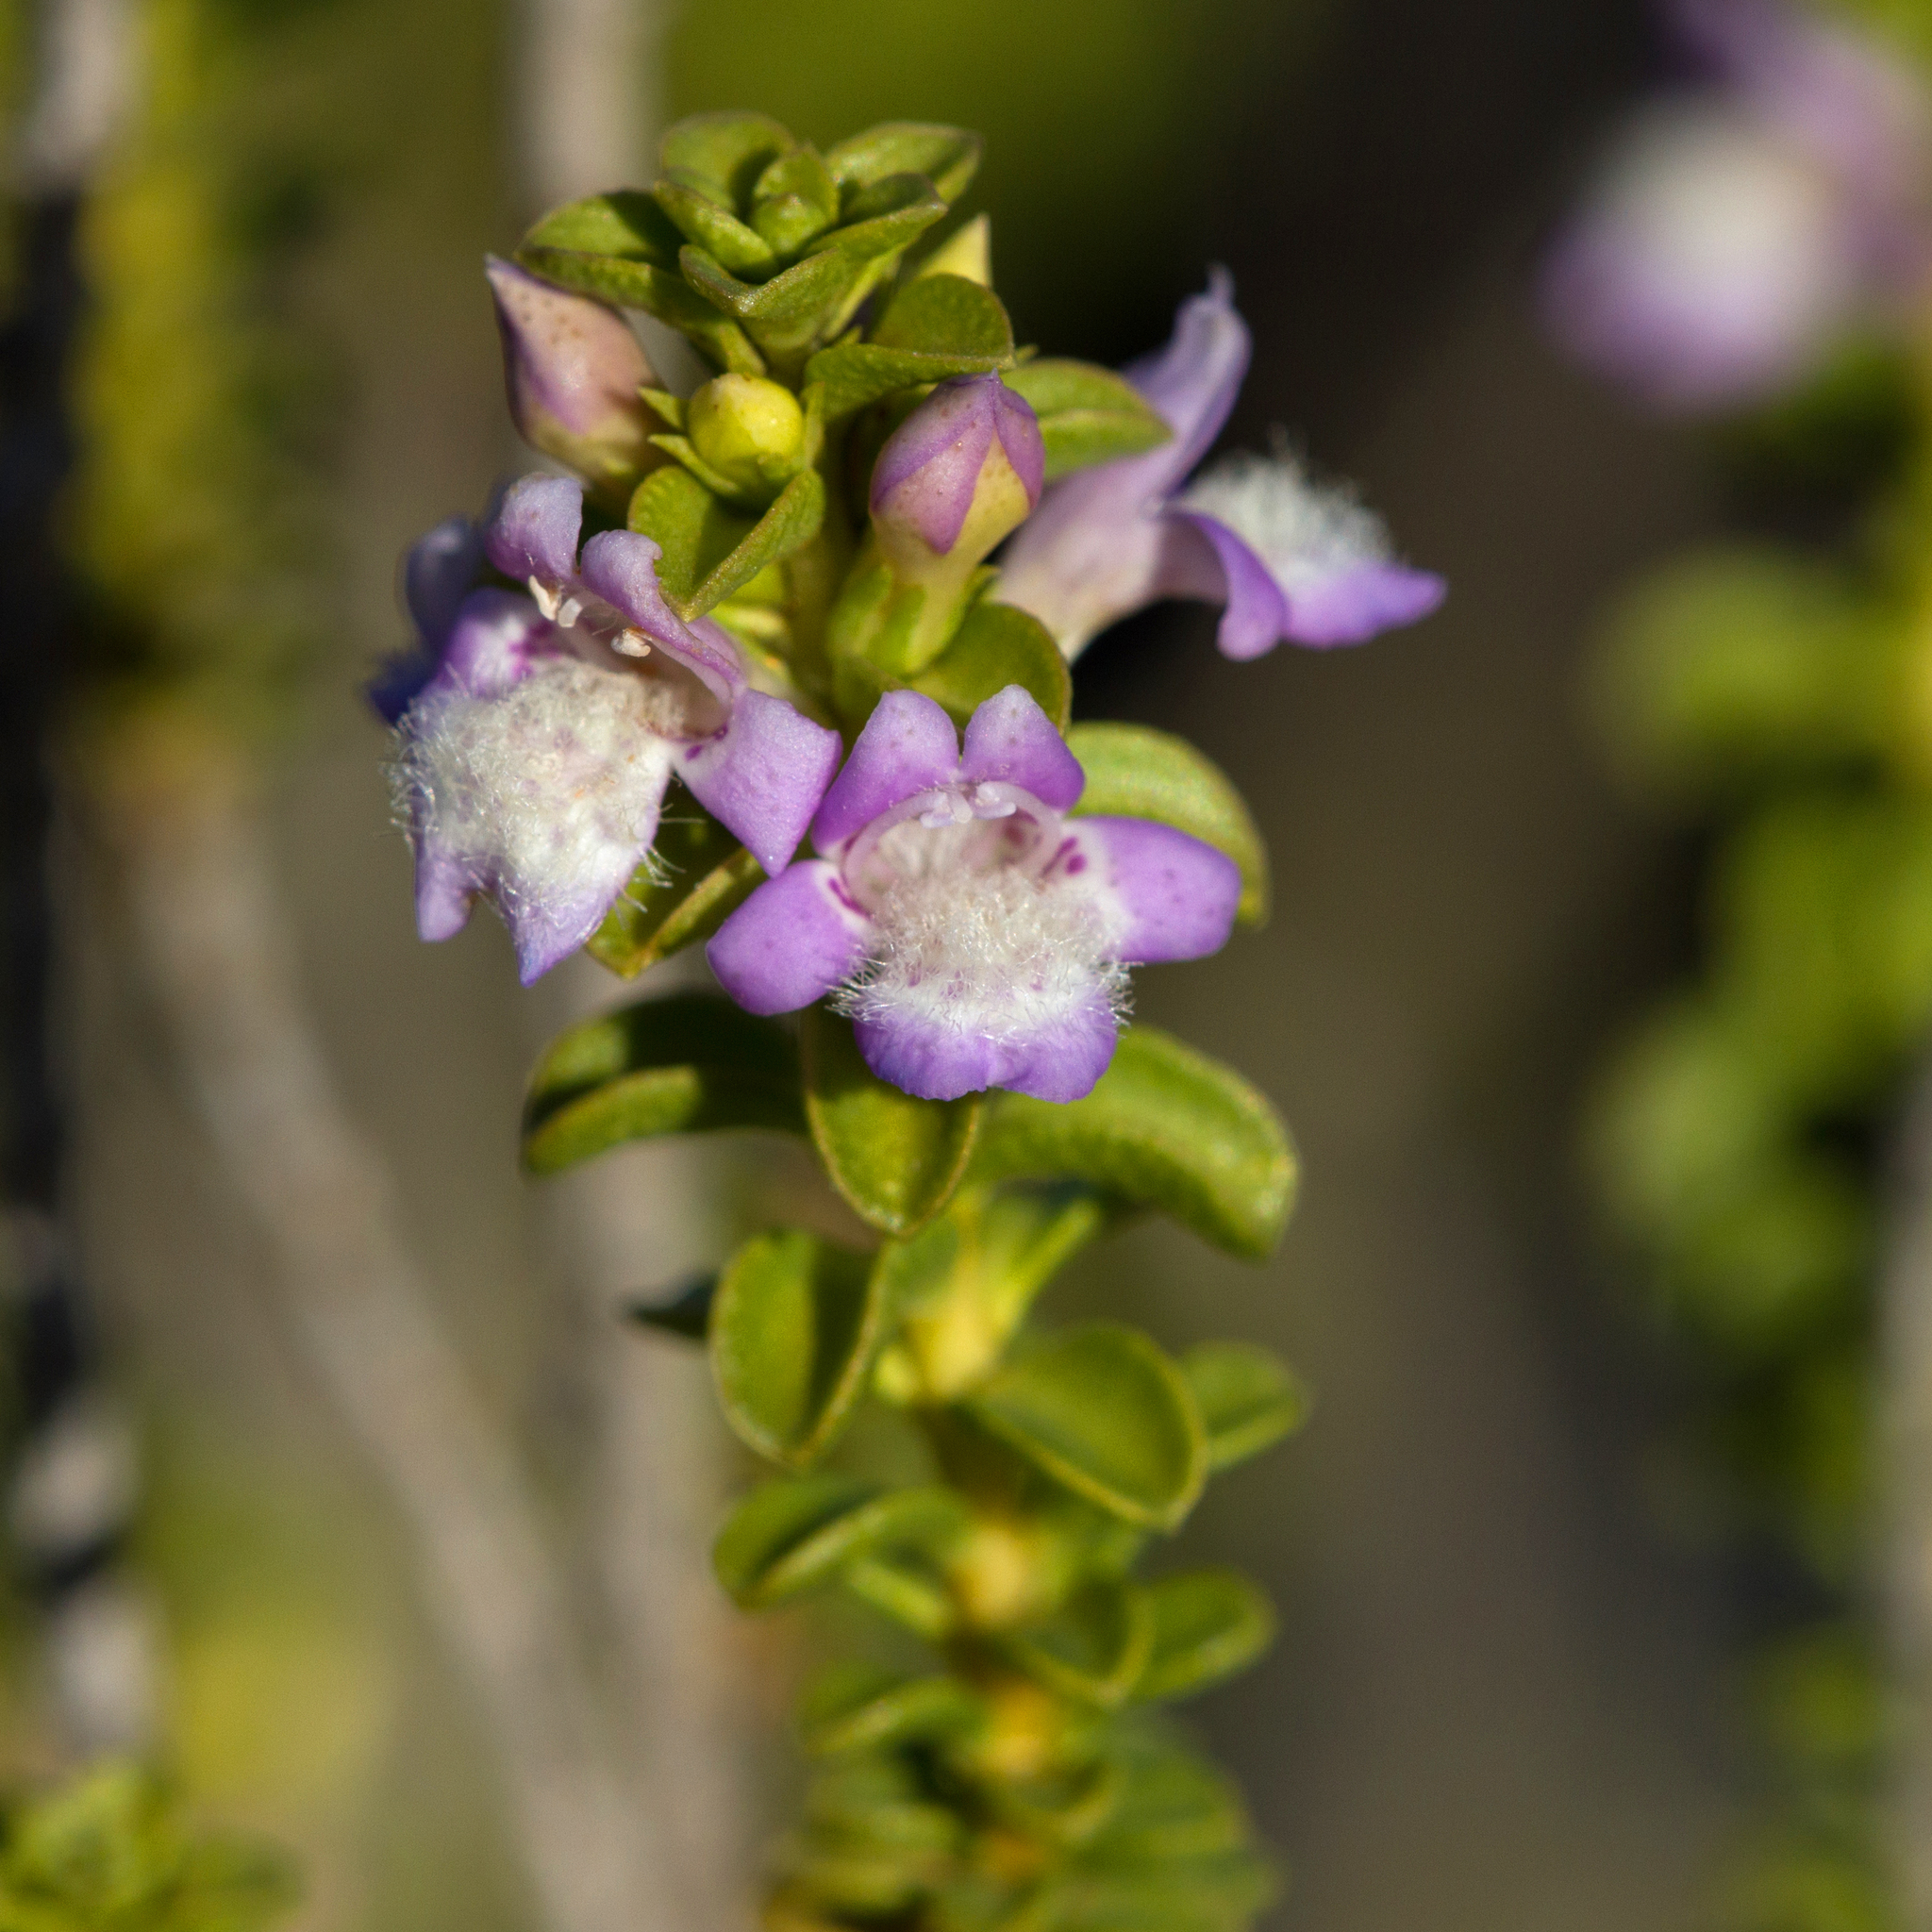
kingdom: Plantae
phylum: Tracheophyta
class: Magnoliopsida
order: Lamiales
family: Scrophulariaceae
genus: Eremophila
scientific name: Eremophila crassifolia
